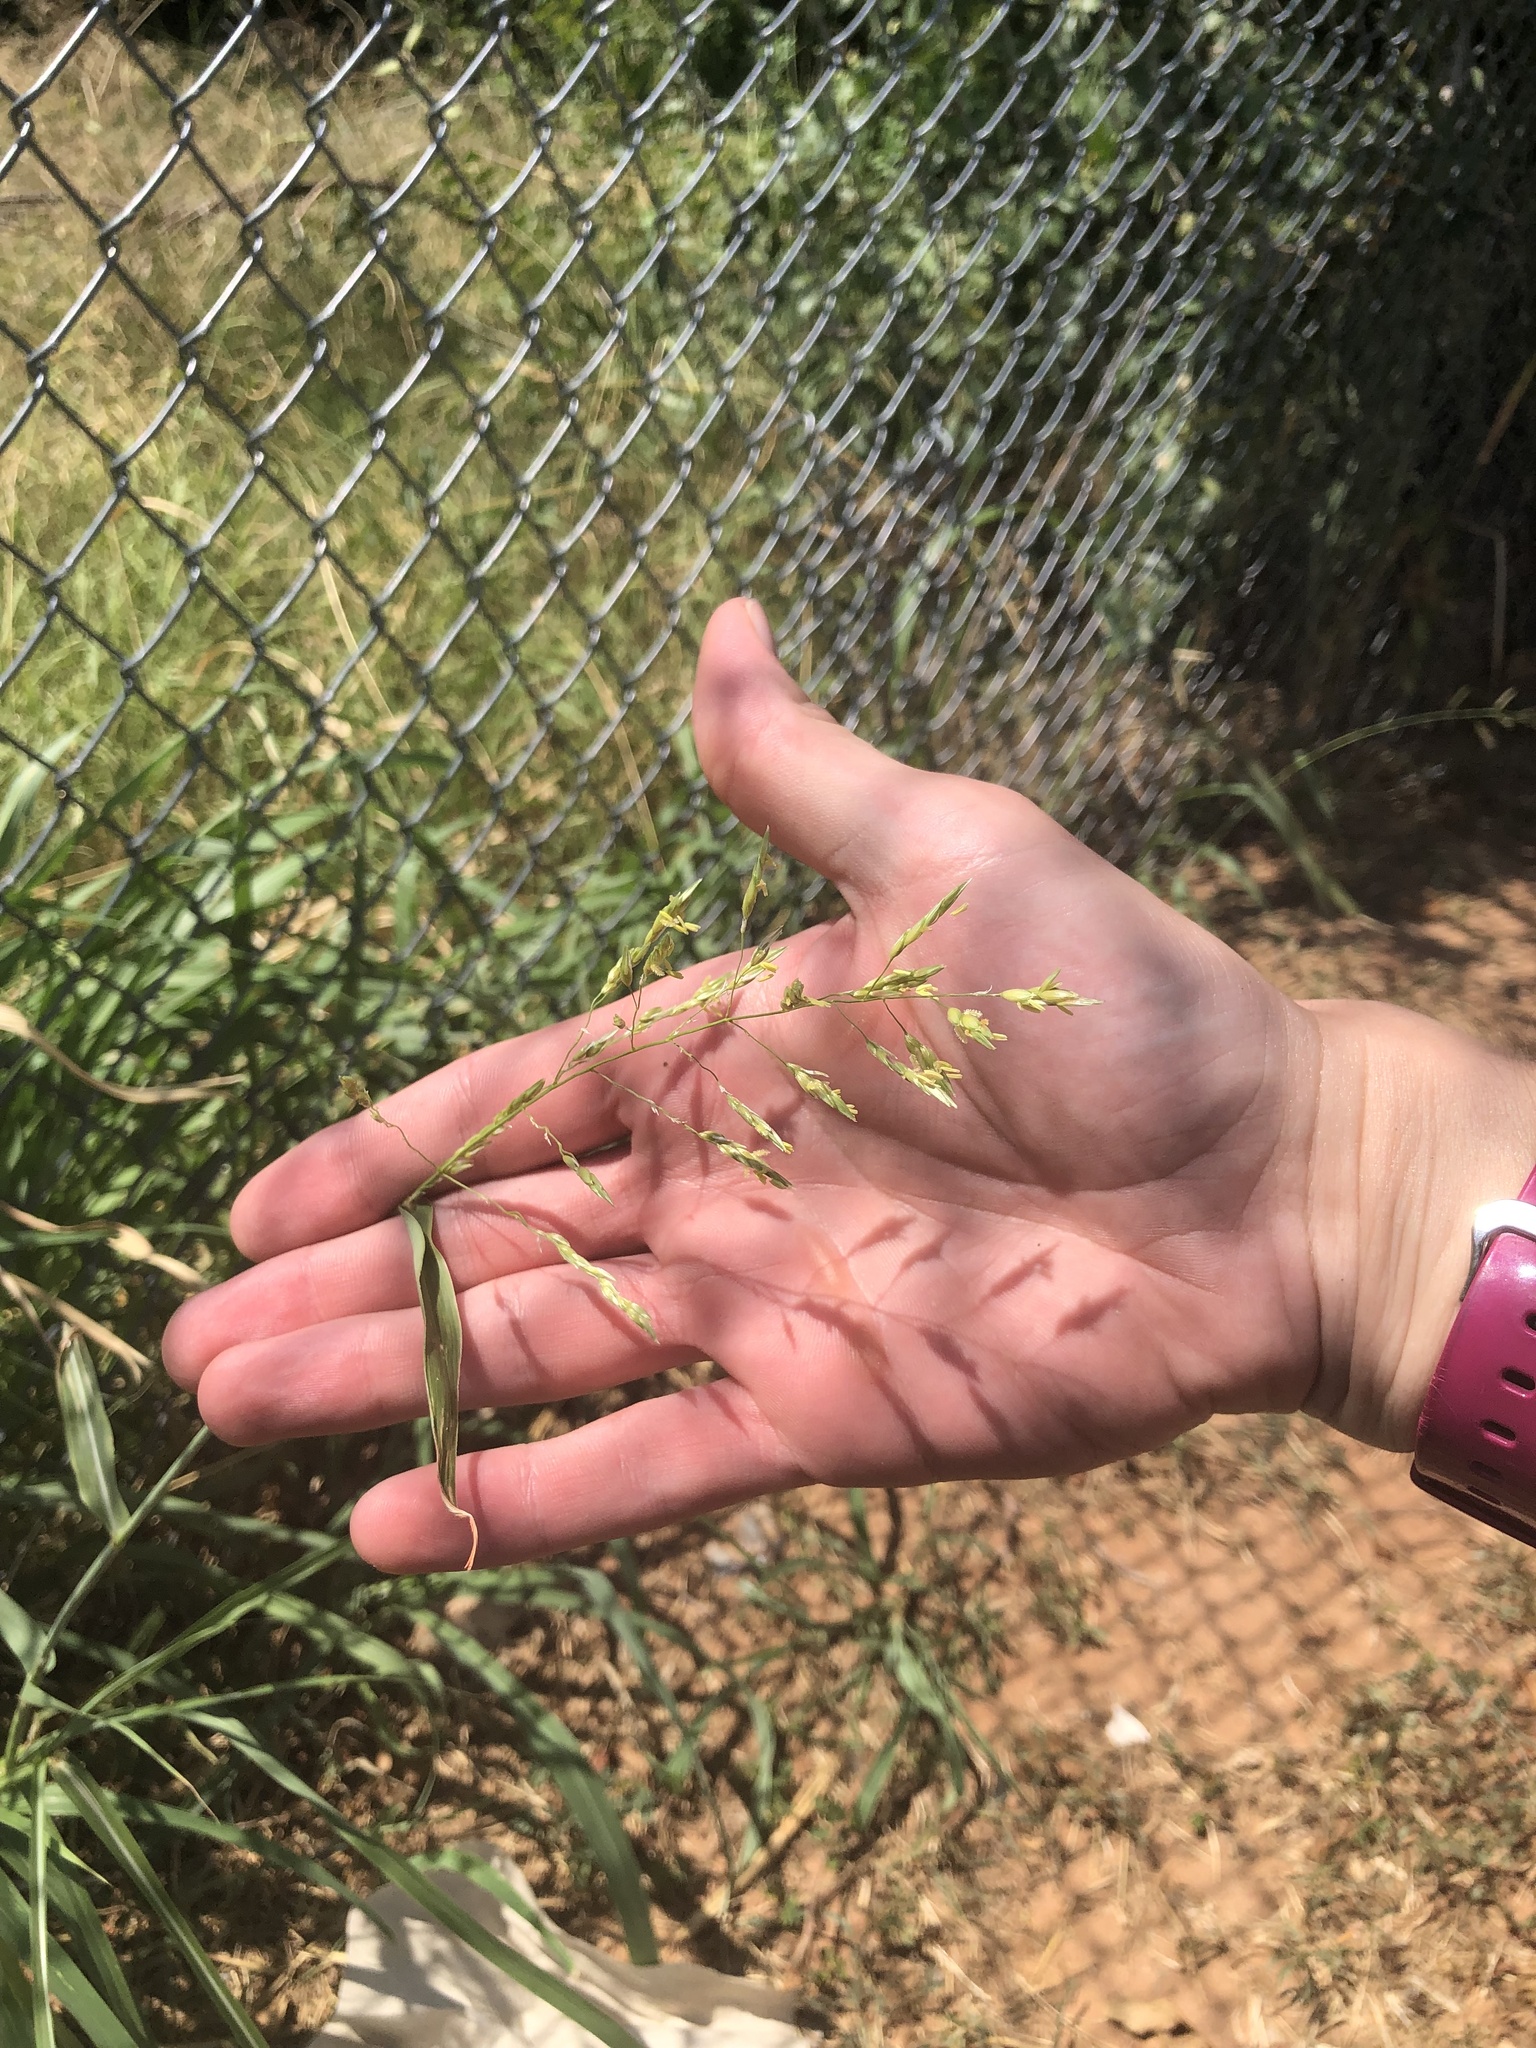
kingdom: Plantae
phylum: Tracheophyta
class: Liliopsida
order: Poales
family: Poaceae
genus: Sorghum
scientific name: Sorghum halepense
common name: Johnson-grass
